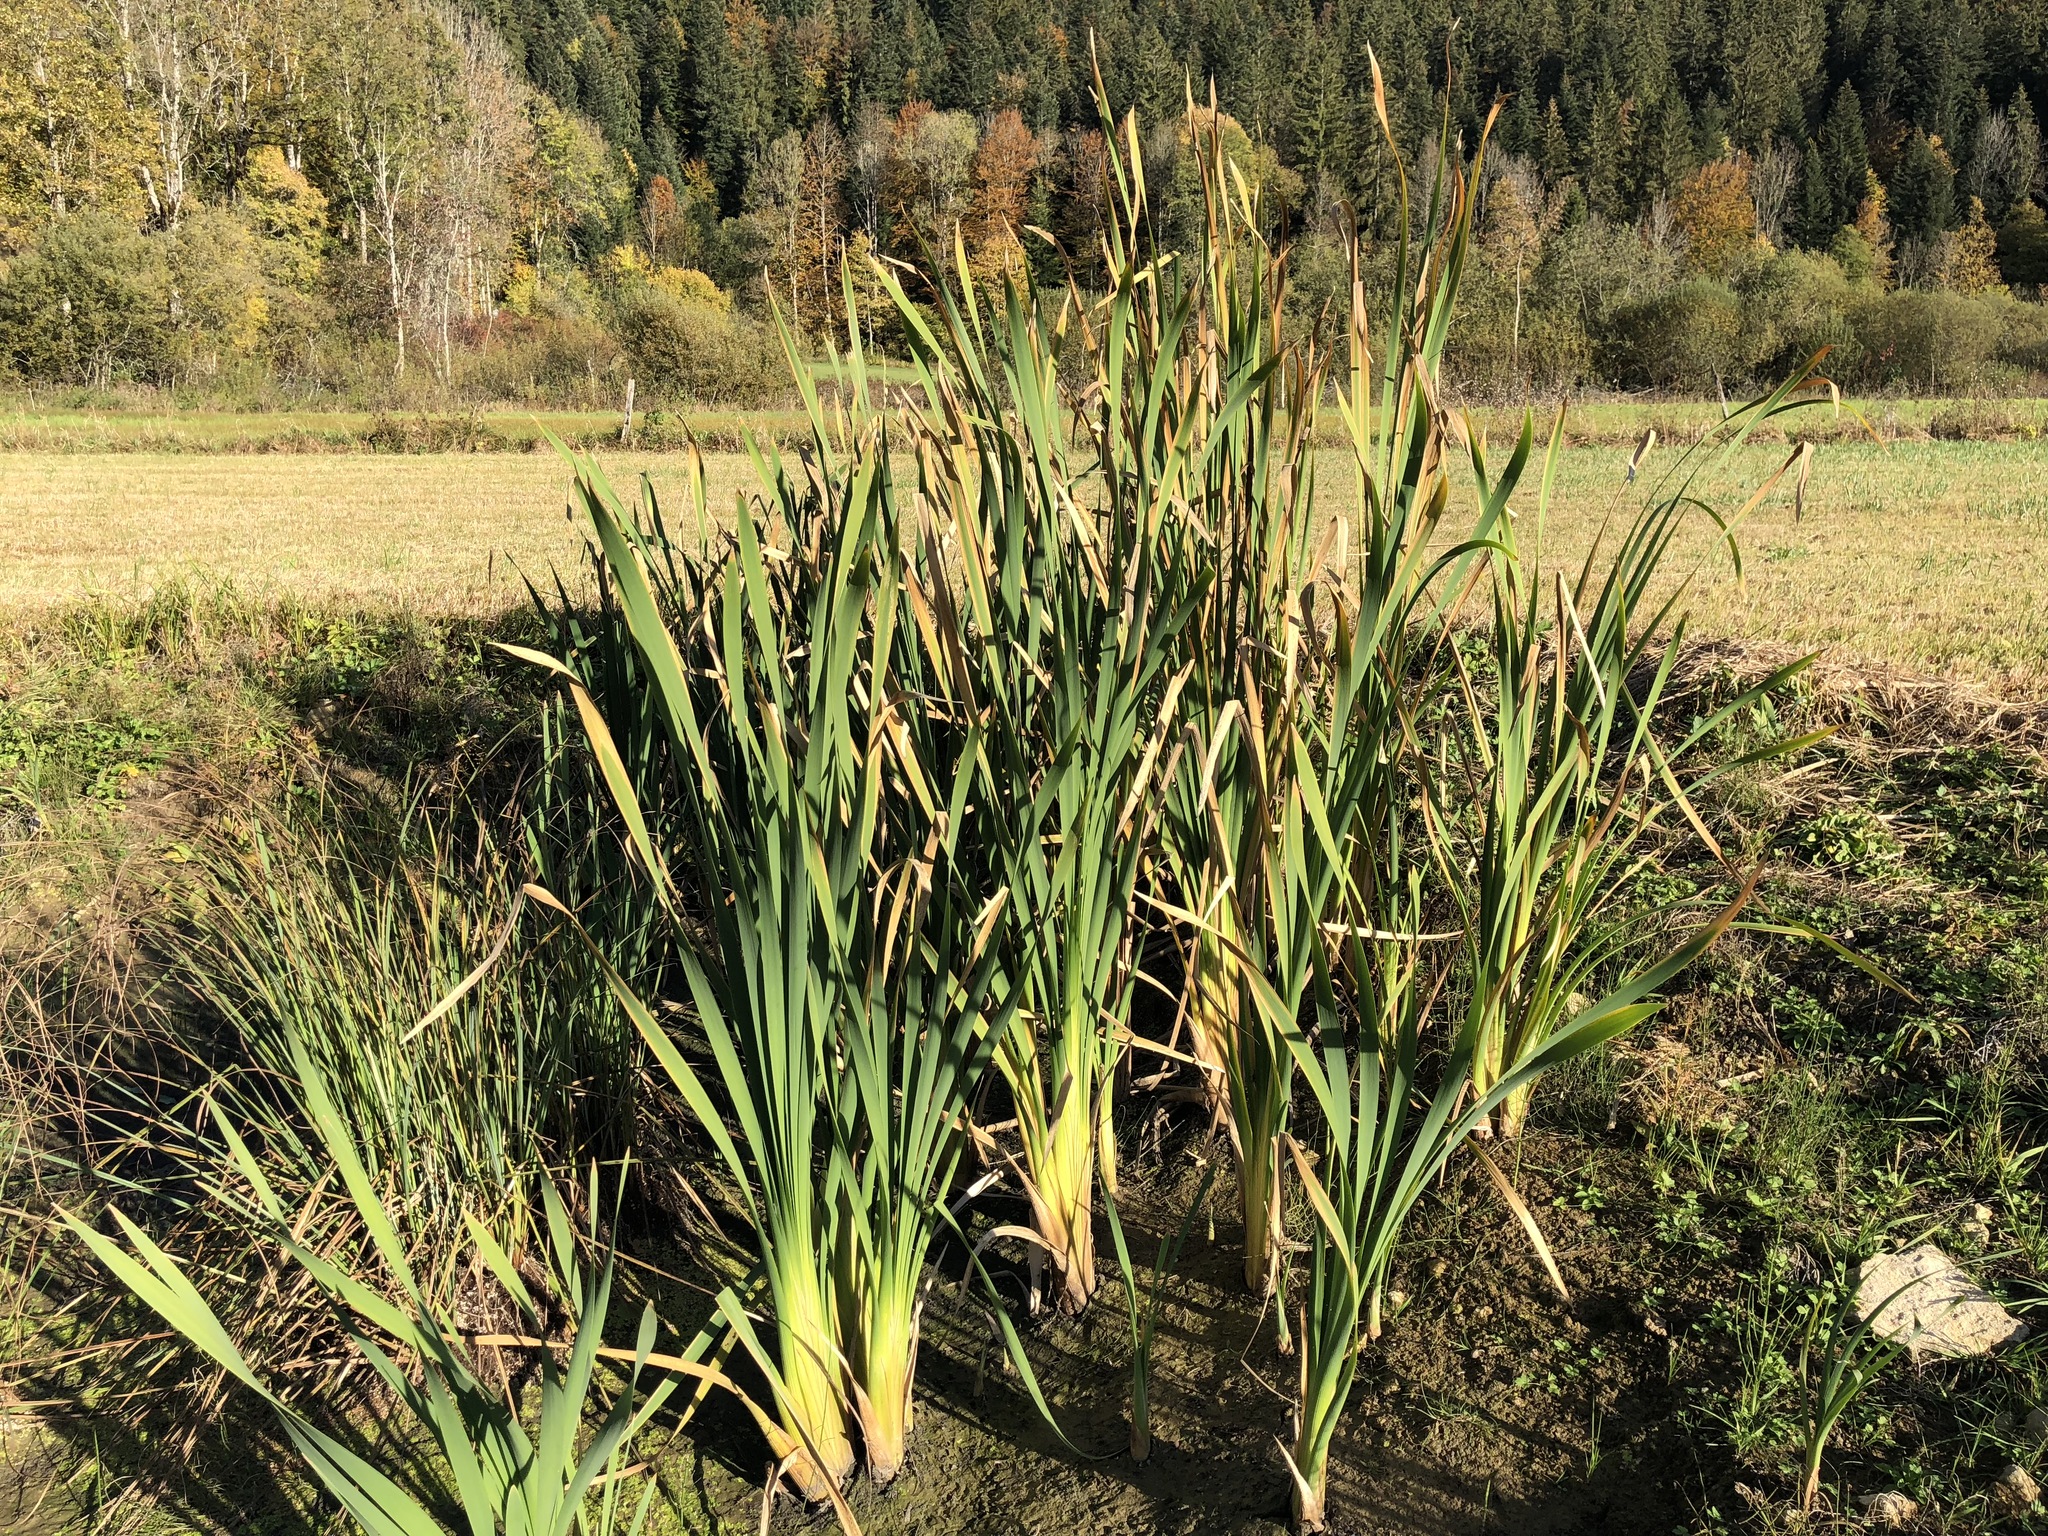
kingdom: Plantae
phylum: Tracheophyta
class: Liliopsida
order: Poales
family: Typhaceae
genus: Typha
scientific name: Typha latifolia
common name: Broadleaf cattail
